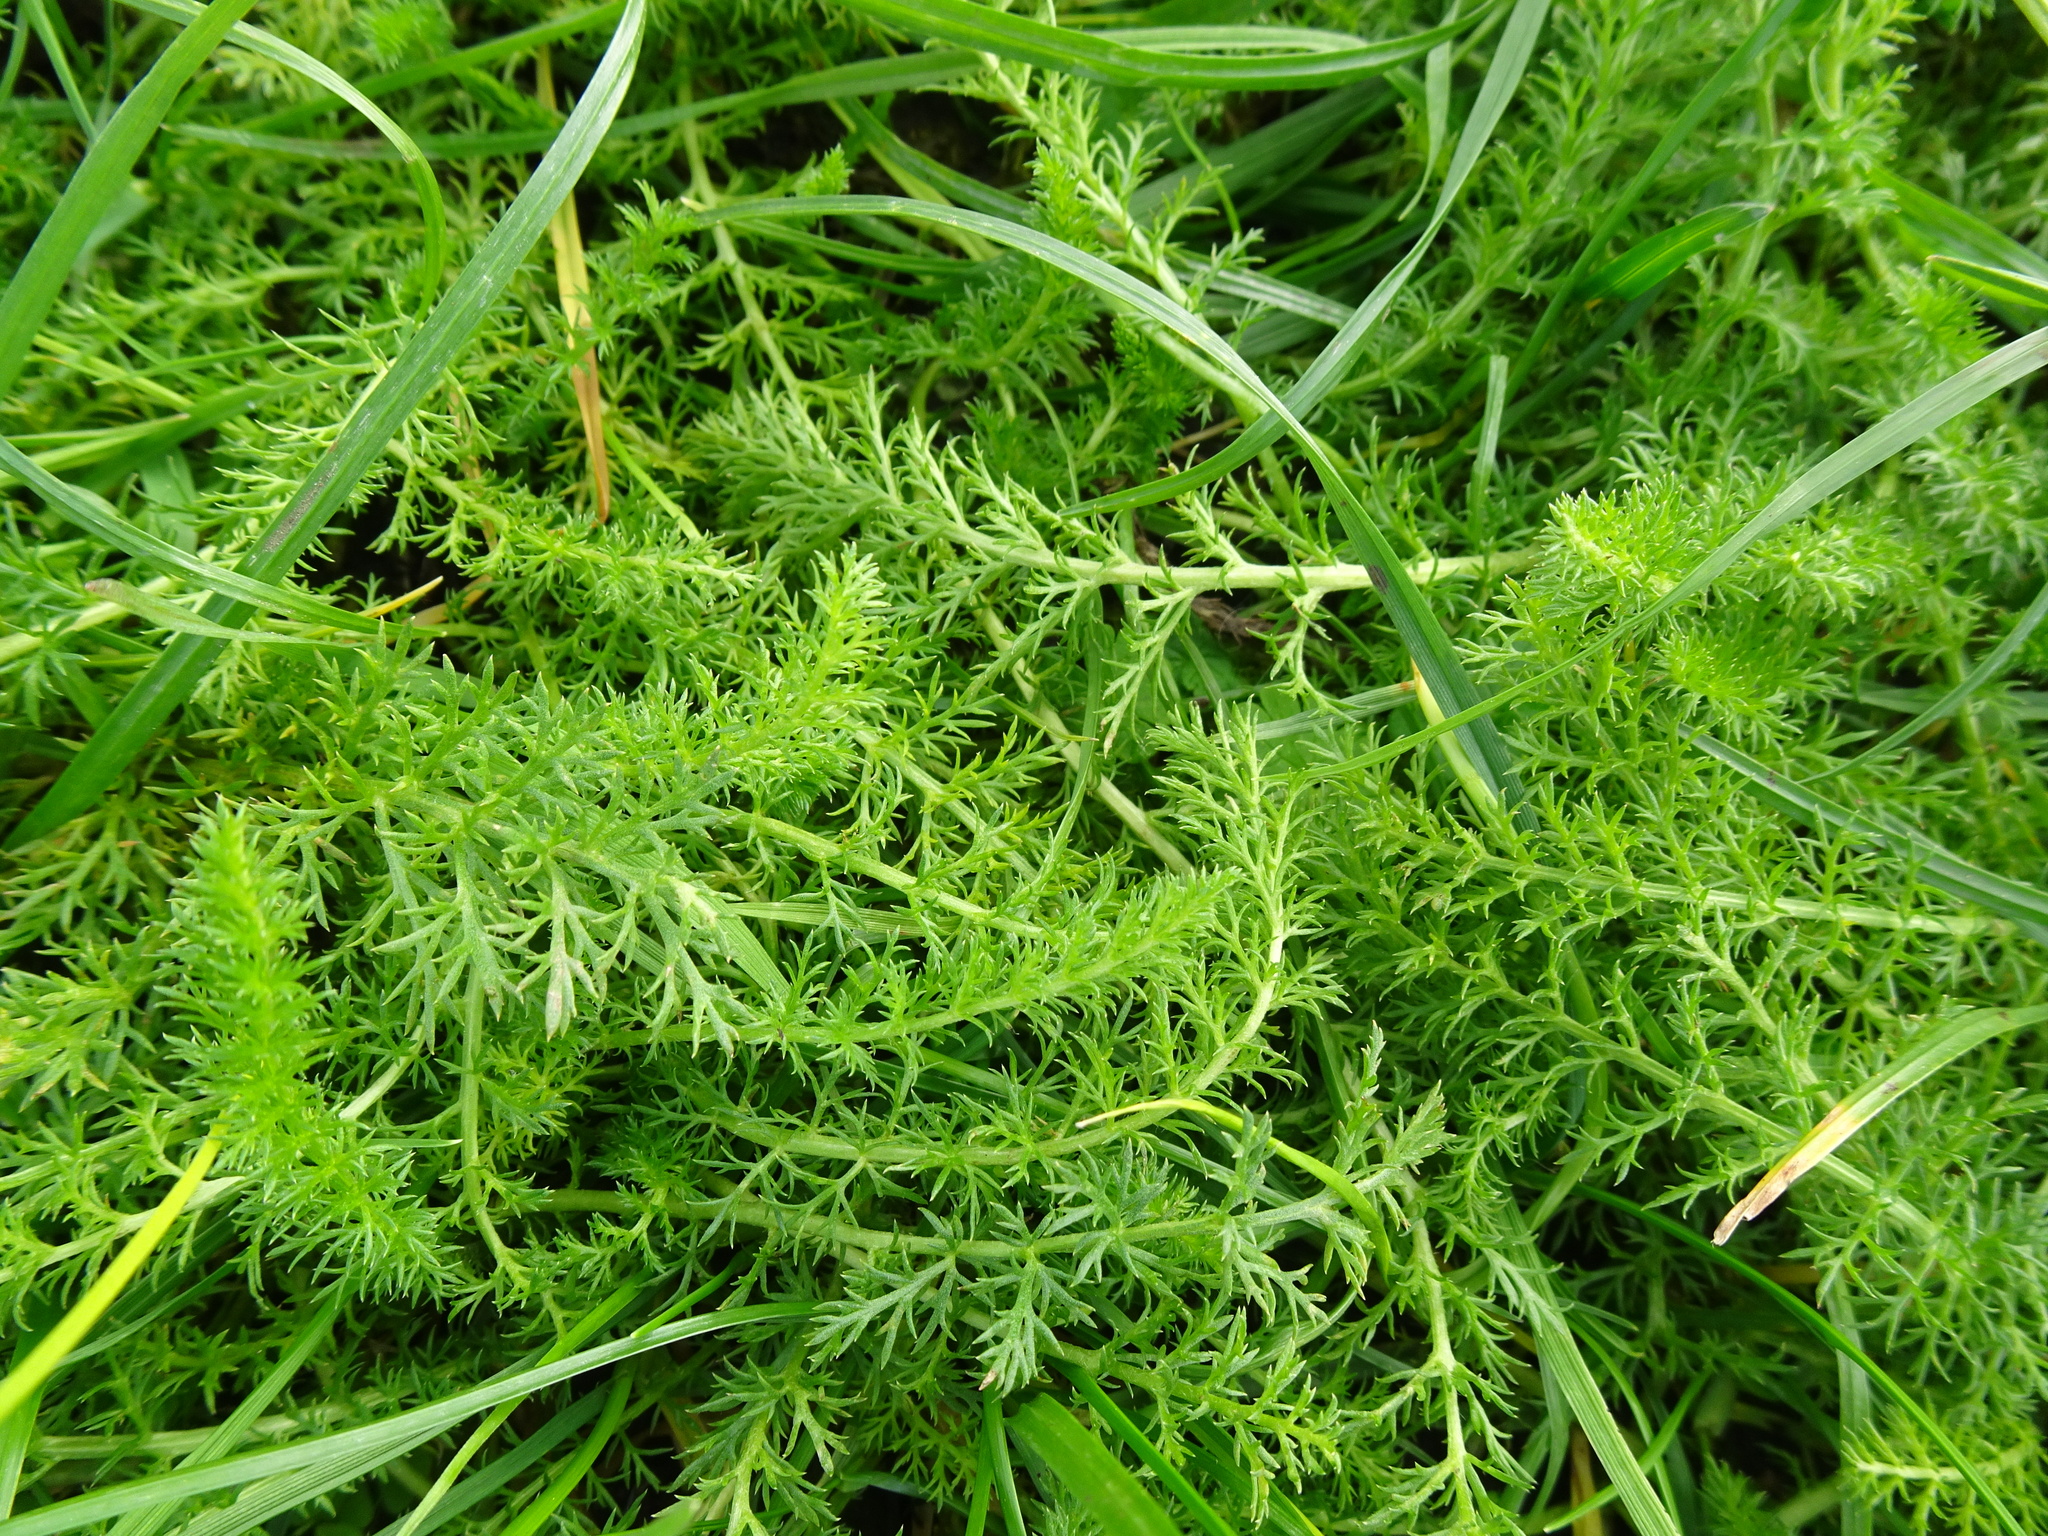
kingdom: Plantae
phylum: Tracheophyta
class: Magnoliopsida
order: Asterales
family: Asteraceae
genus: Achillea
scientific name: Achillea millefolium
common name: Yarrow
